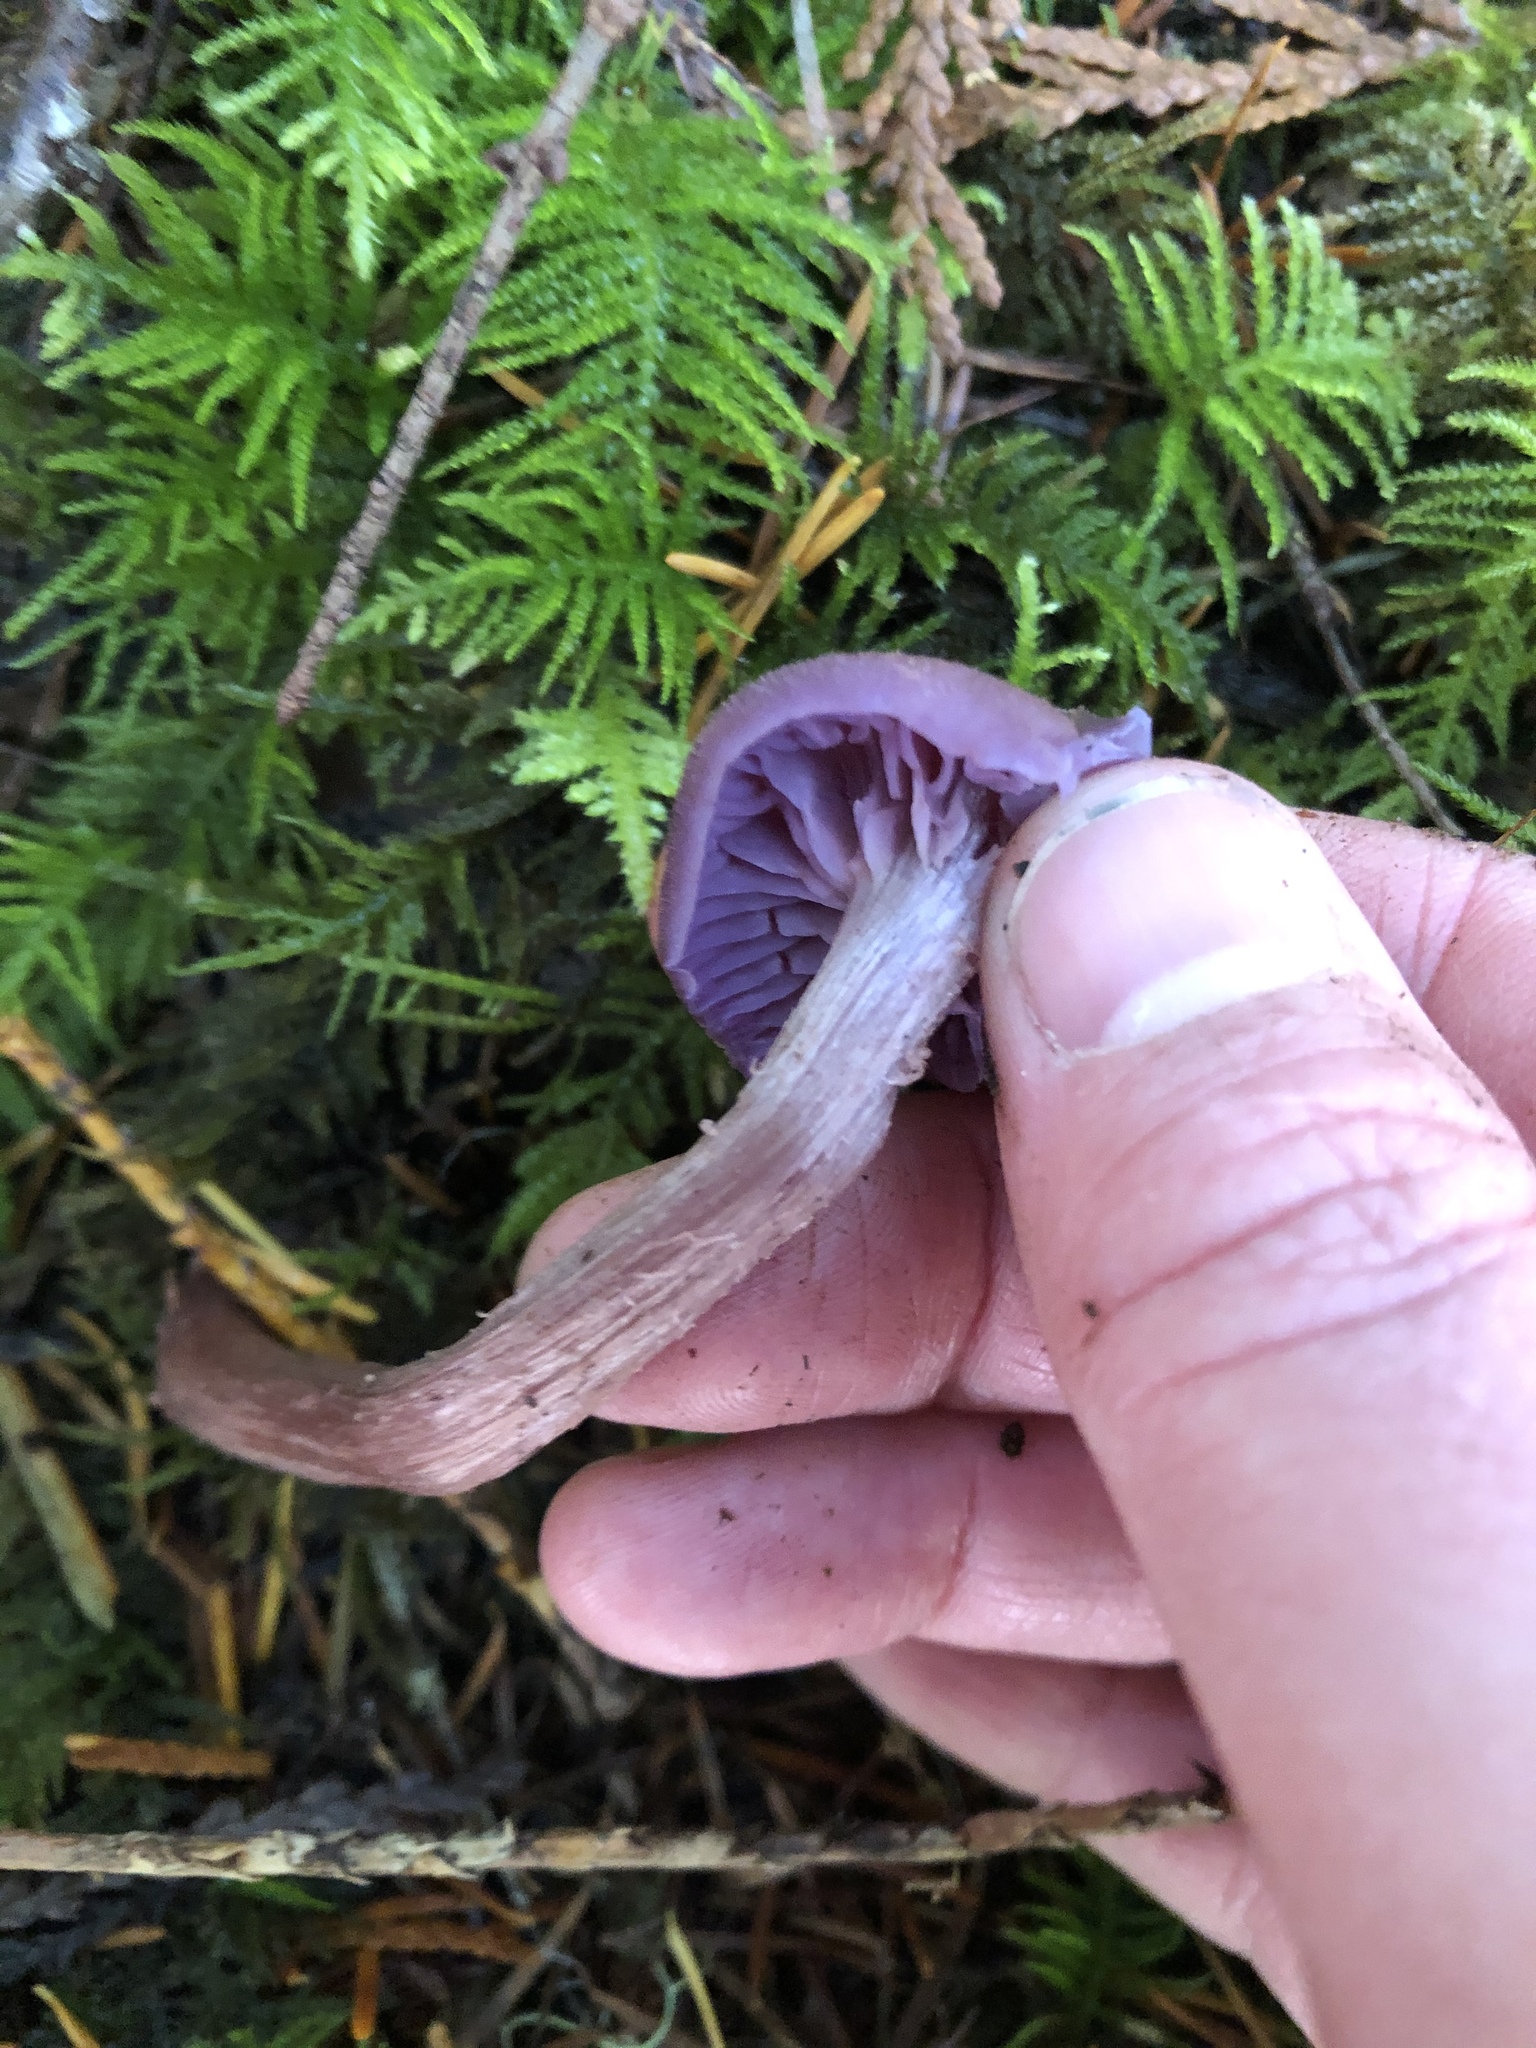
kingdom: Fungi
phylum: Basidiomycota
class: Agaricomycetes
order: Agaricales
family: Hydnangiaceae
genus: Laccaria
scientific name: Laccaria amethysteo-occidentalis
